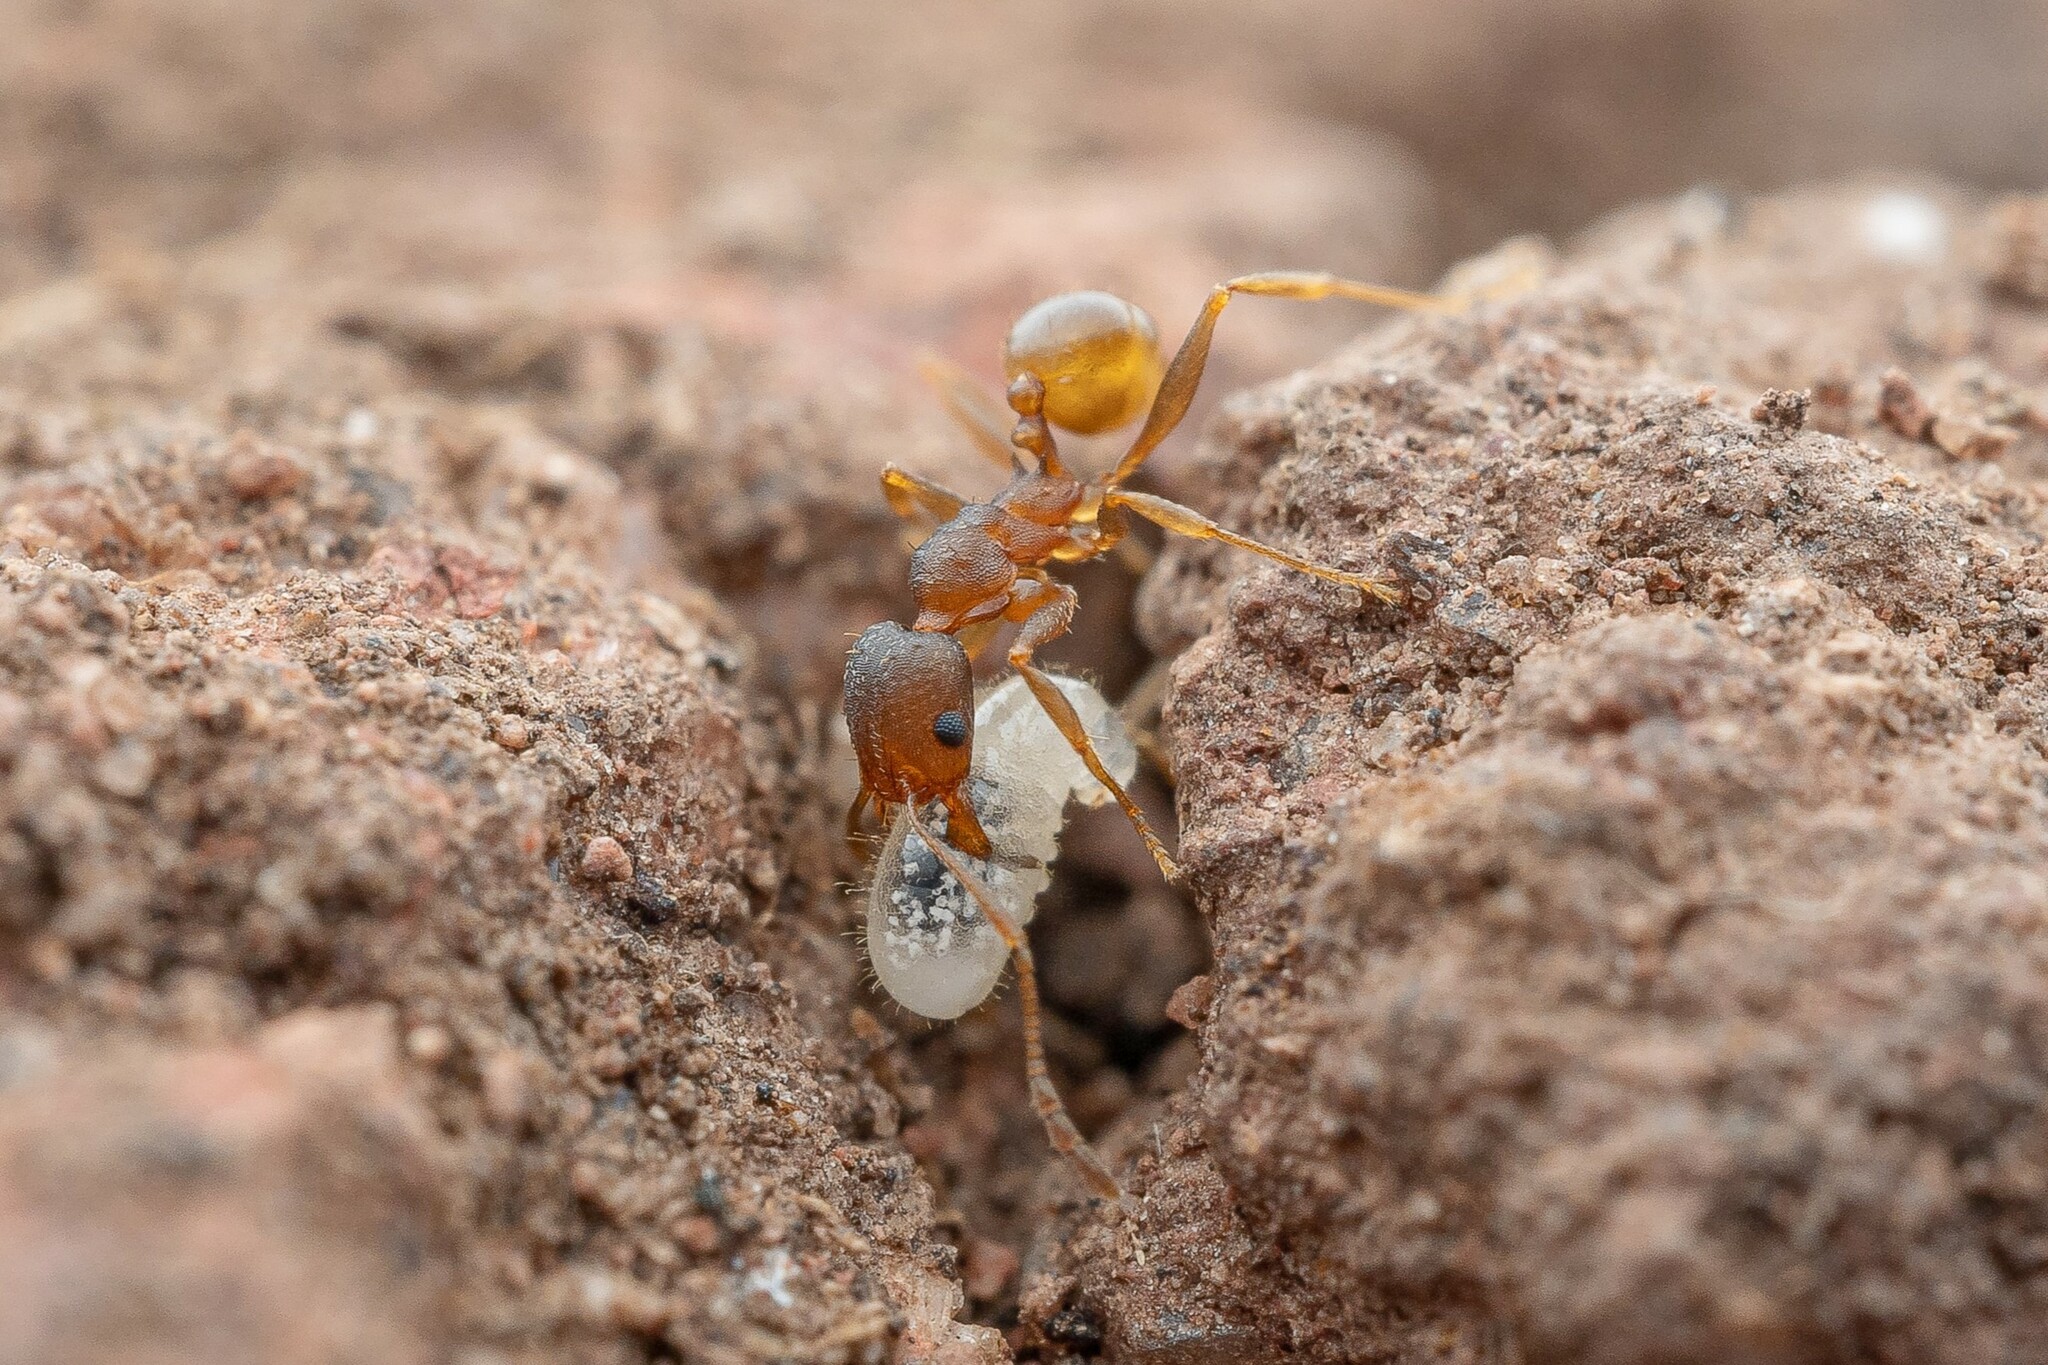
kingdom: Animalia
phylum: Arthropoda
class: Insecta
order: Hymenoptera
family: Formicidae
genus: Pheidole
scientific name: Pheidole
